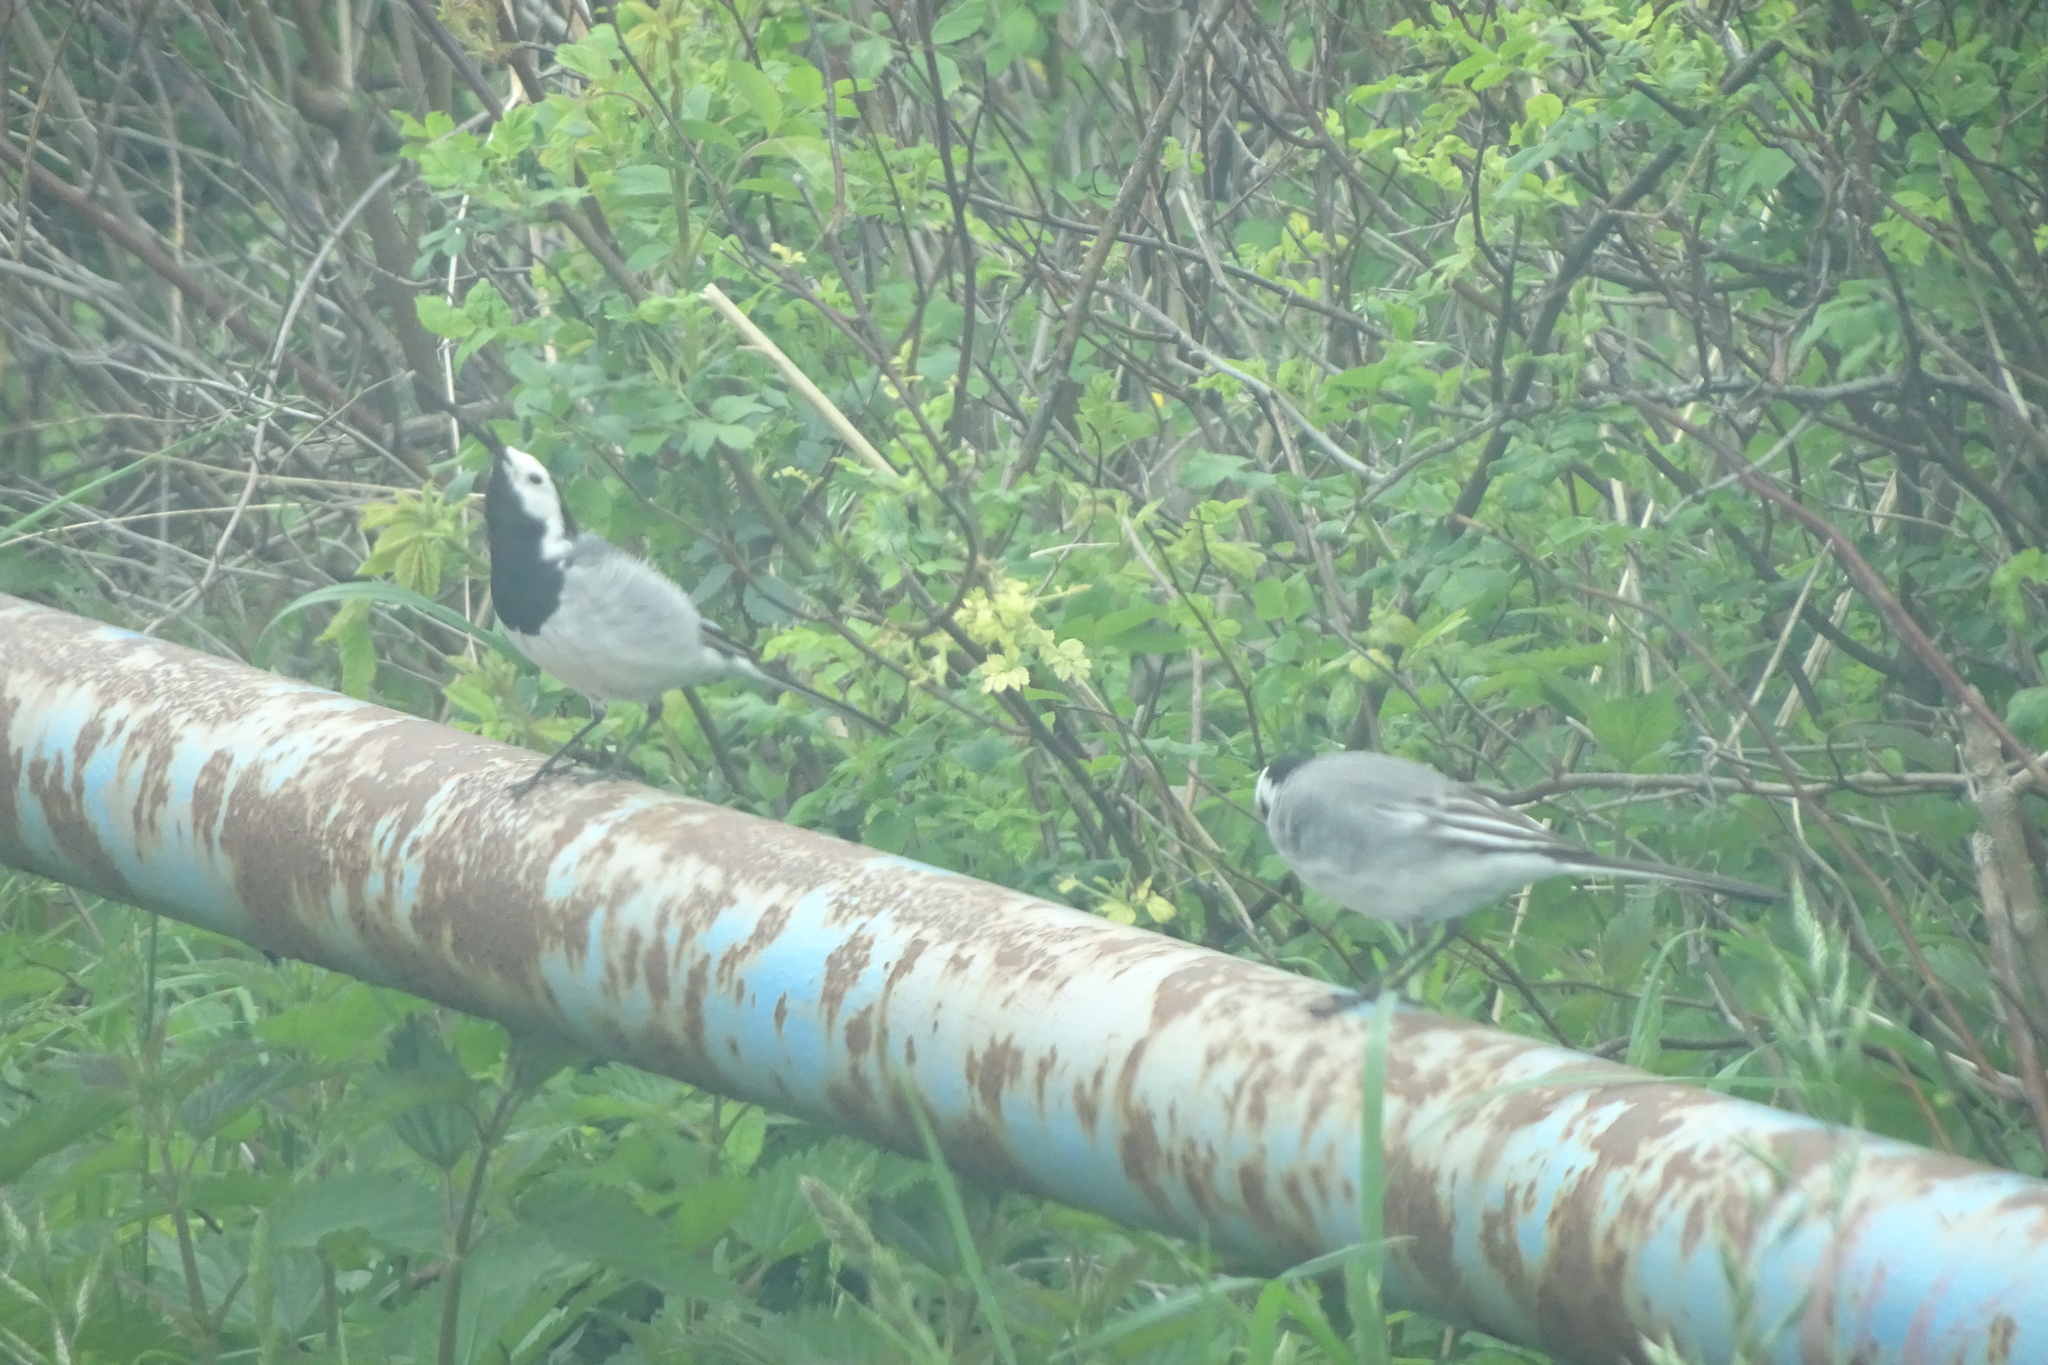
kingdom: Animalia
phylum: Chordata
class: Aves
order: Passeriformes
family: Motacillidae
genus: Motacilla
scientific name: Motacilla alba
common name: White wagtail
